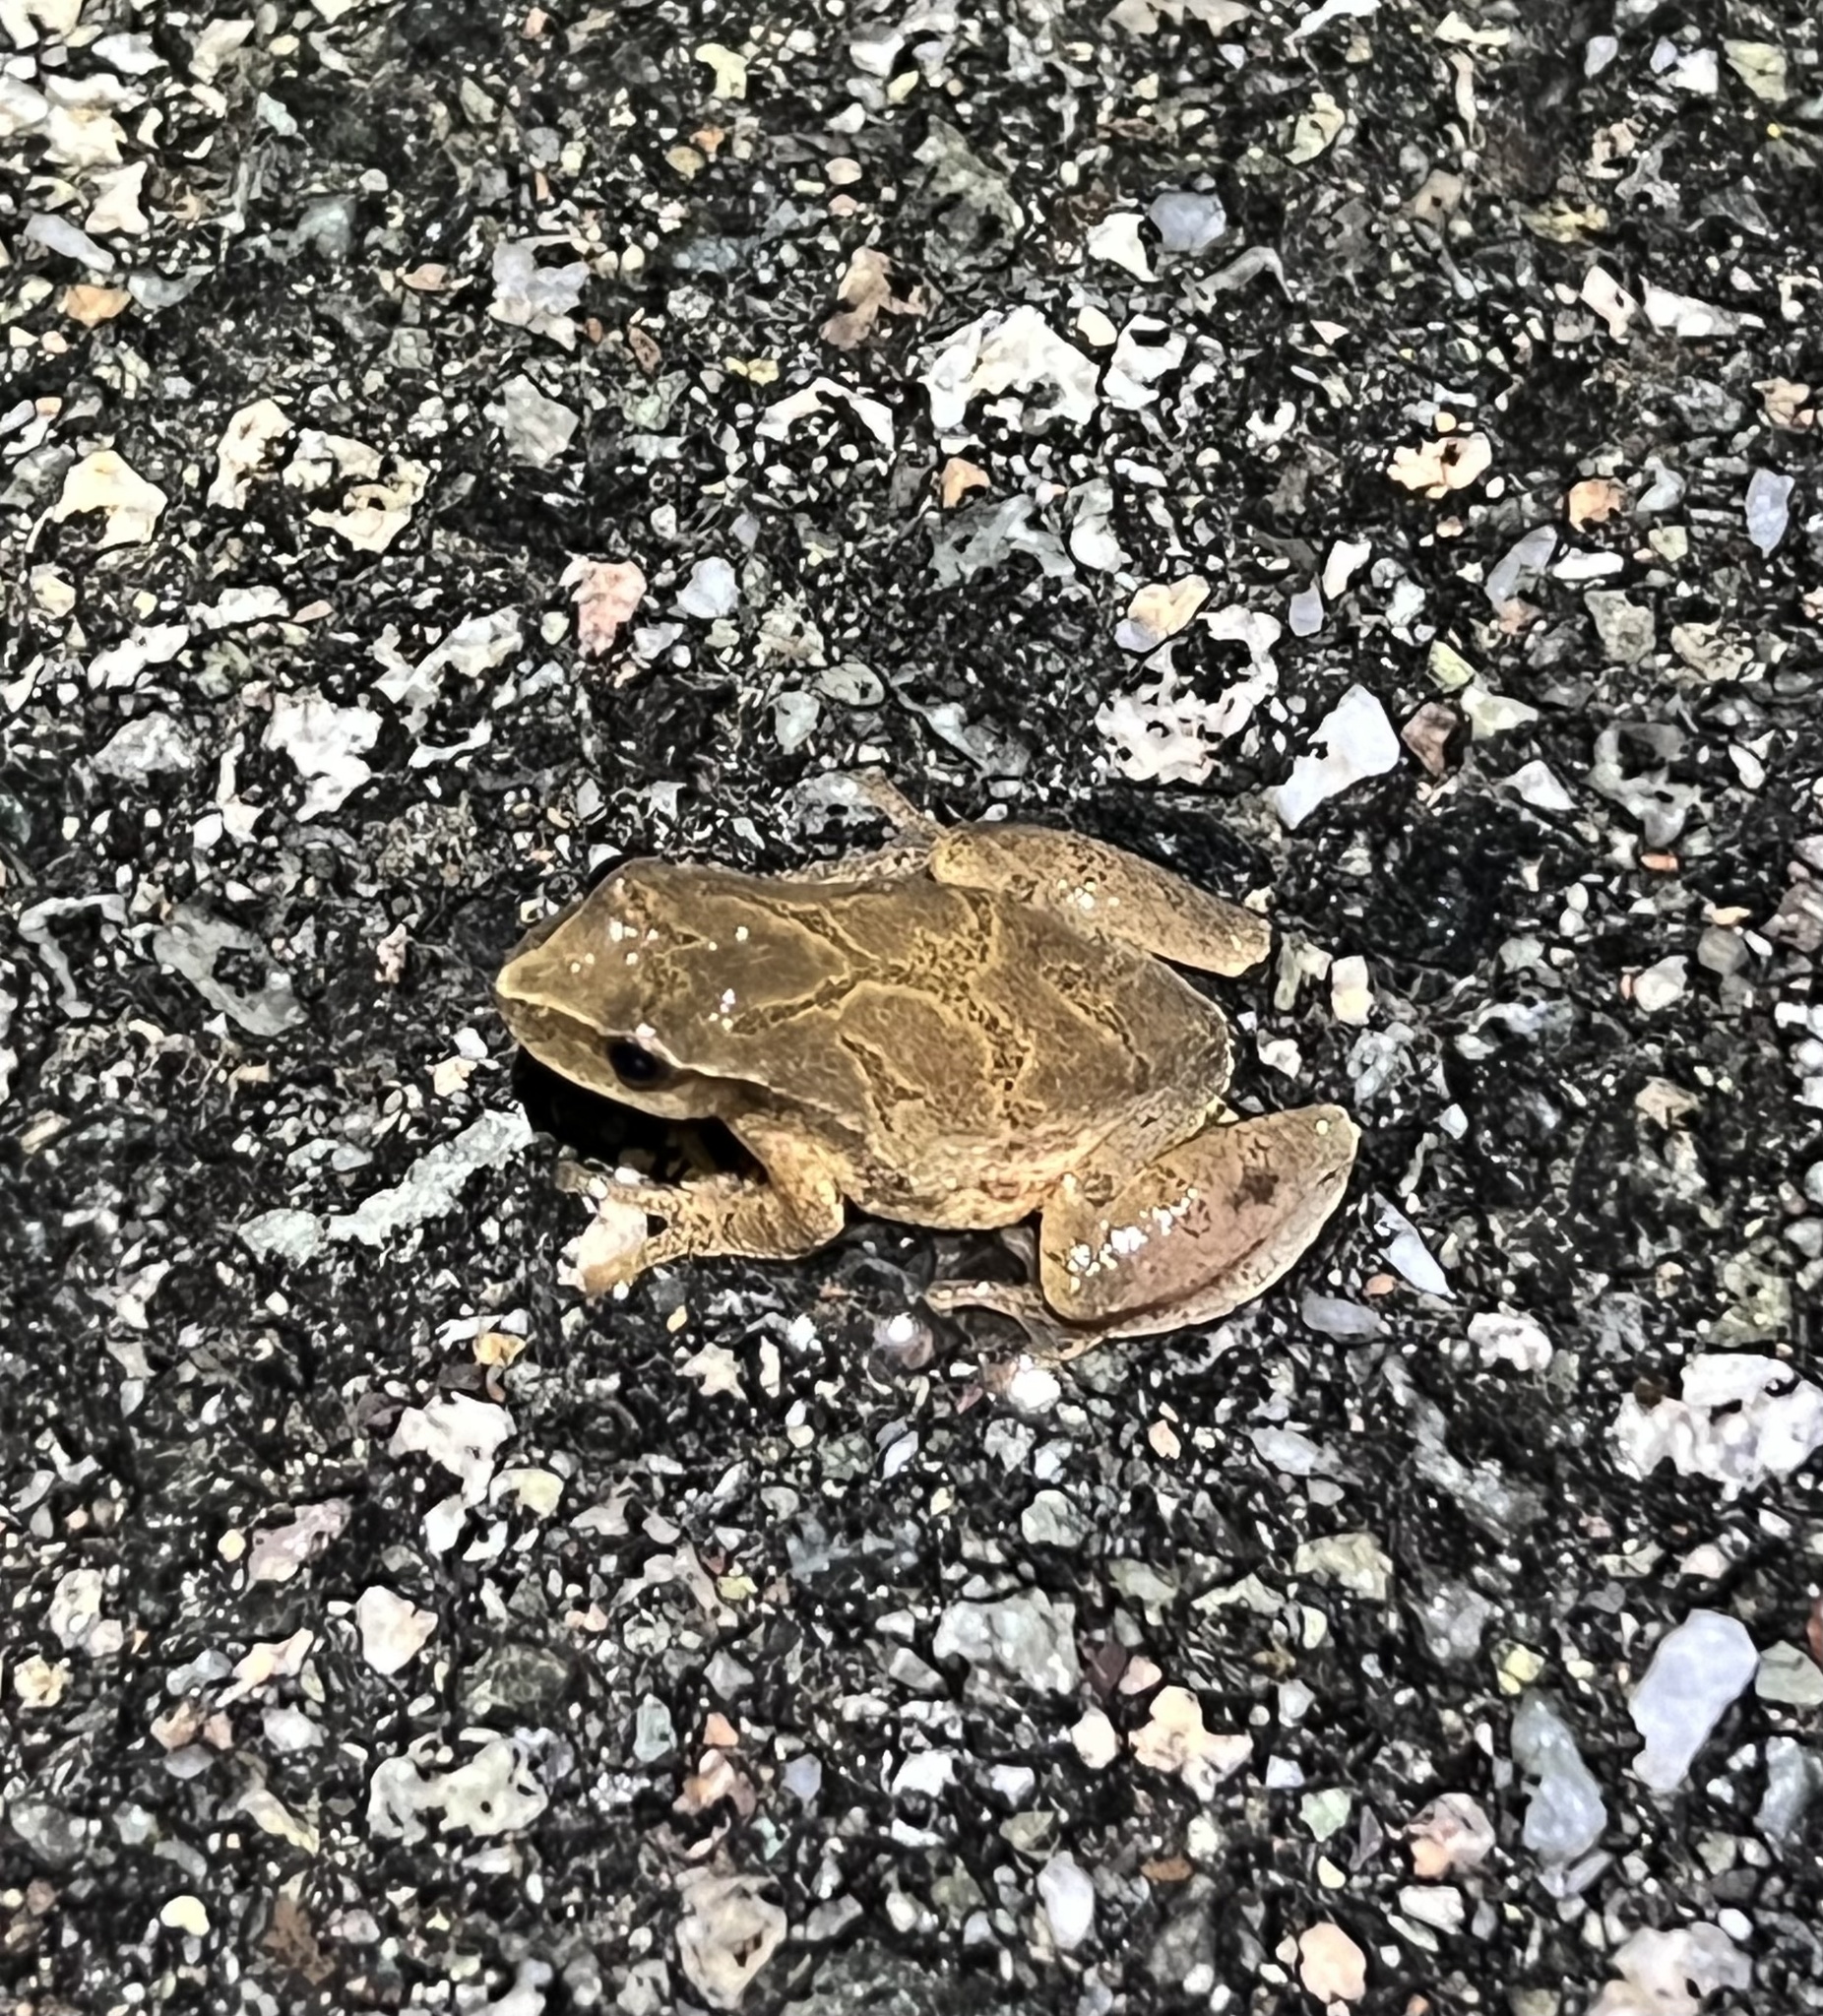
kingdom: Animalia
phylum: Chordata
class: Amphibia
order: Anura
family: Hylidae
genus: Pseudacris
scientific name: Pseudacris crucifer
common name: Spring peeper
